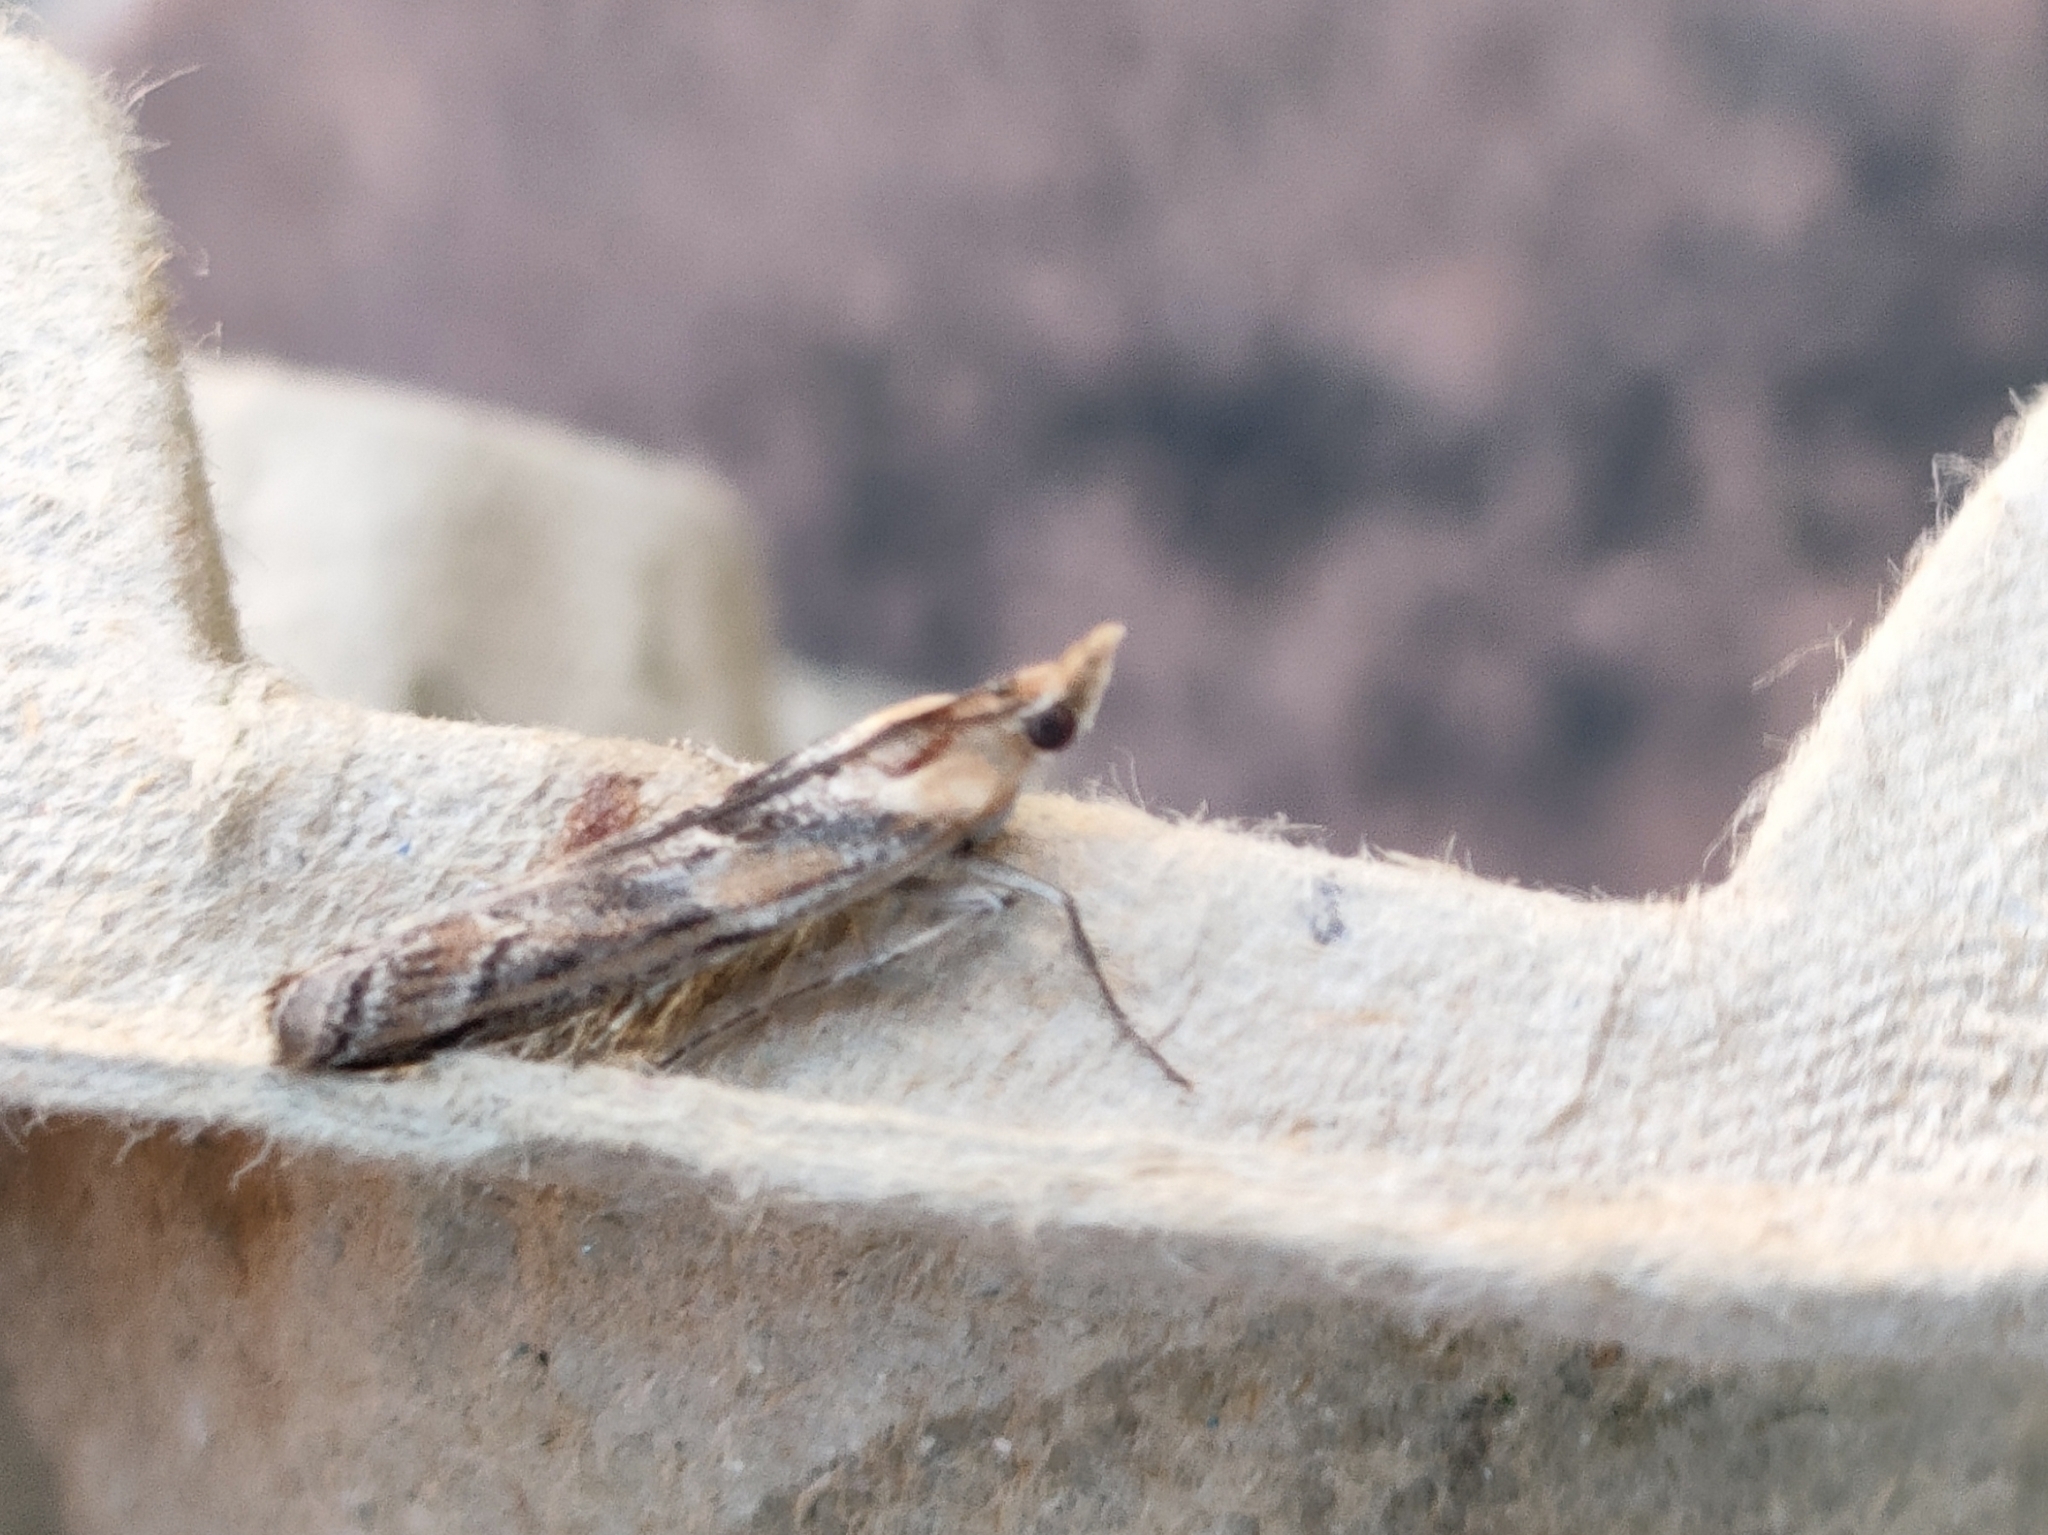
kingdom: Animalia
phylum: Arthropoda
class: Insecta
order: Lepidoptera
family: Pyralidae
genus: Ancylosis
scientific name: Ancylosis cinnamomella
